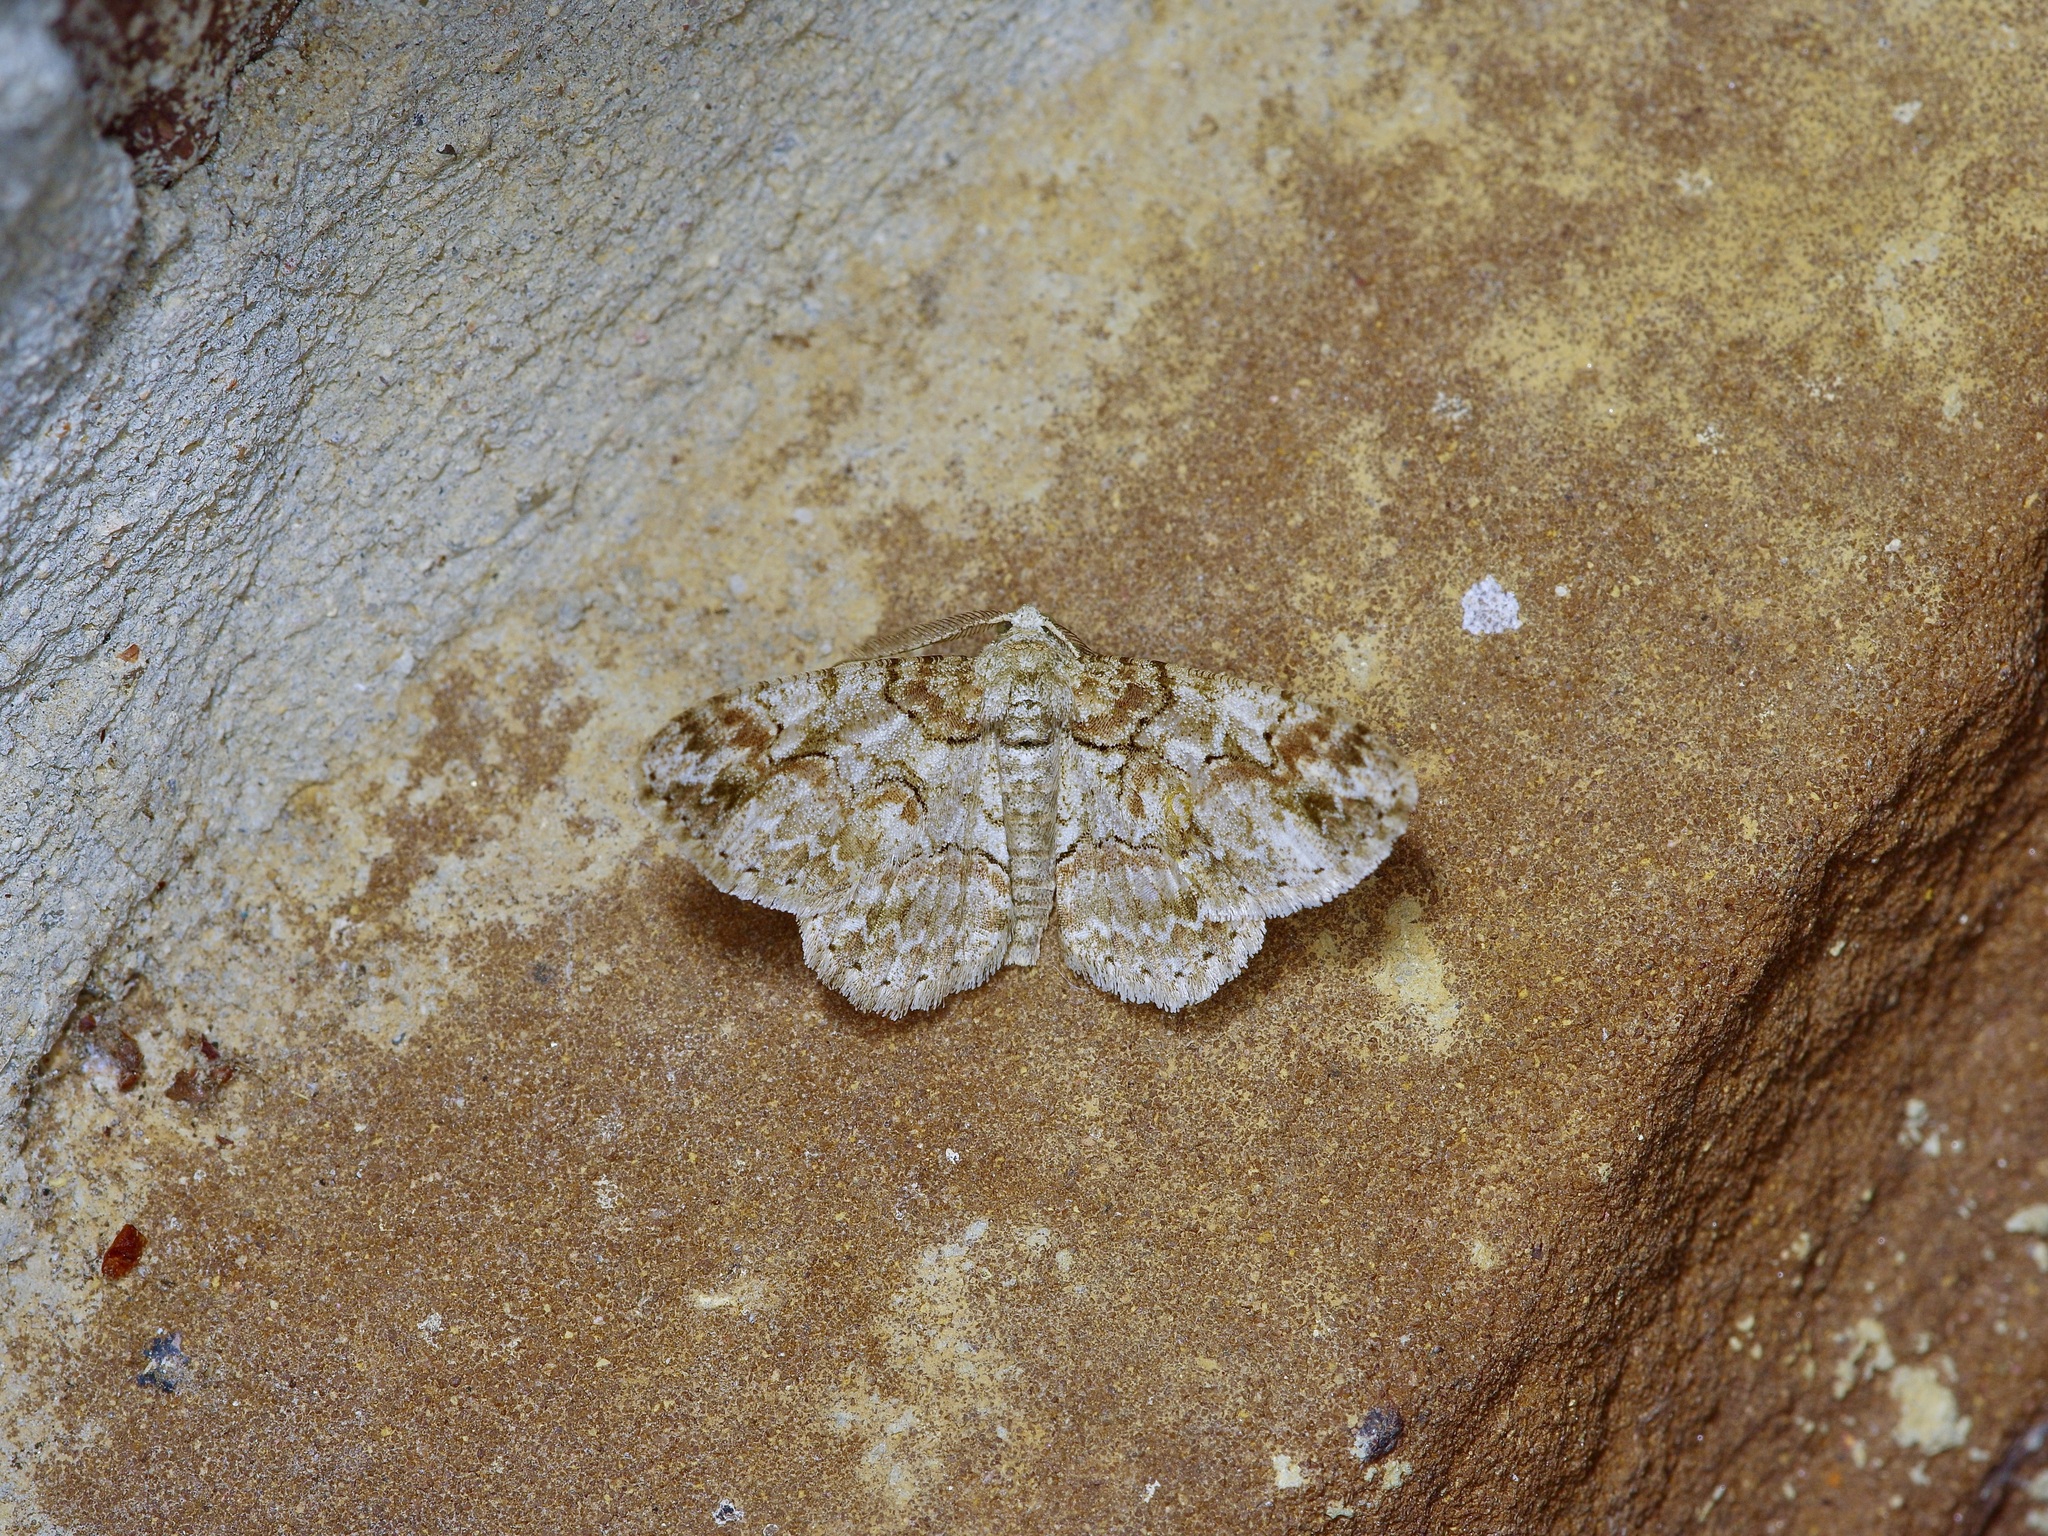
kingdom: Animalia
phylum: Arthropoda
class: Insecta
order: Lepidoptera
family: Geometridae
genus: Iridopsis
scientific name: Iridopsis defectaria
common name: Brown-shaded gray
